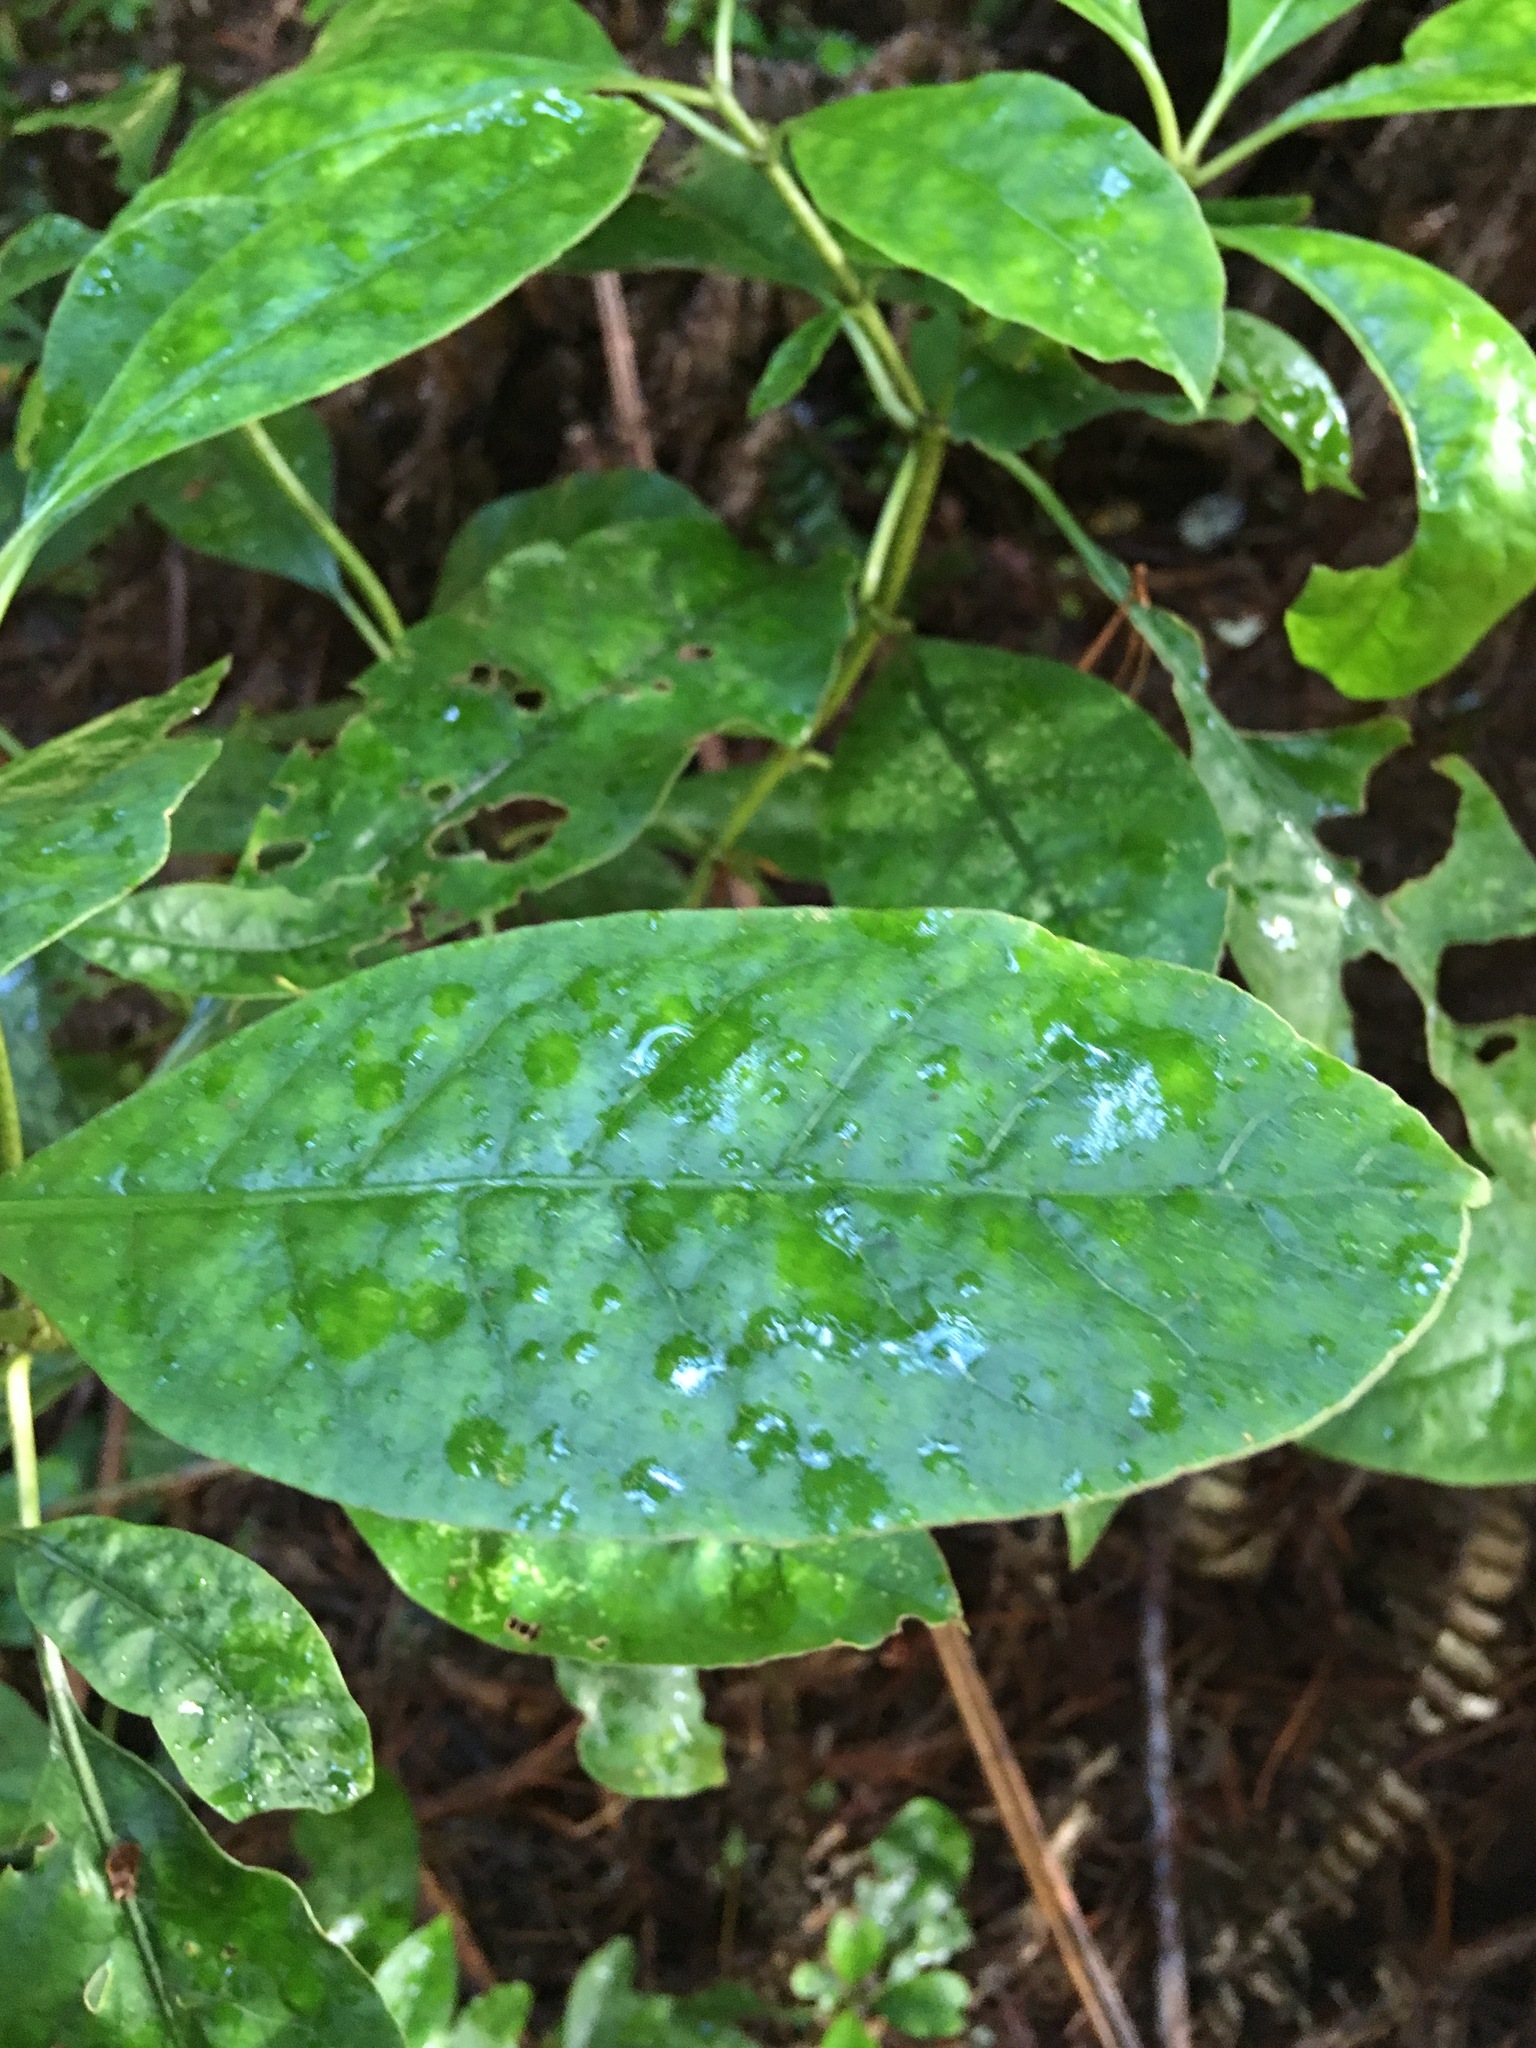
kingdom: Plantae
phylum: Tracheophyta
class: Magnoliopsida
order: Gentianales
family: Rubiaceae
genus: Coprosma
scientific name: Coprosma autumnalis
